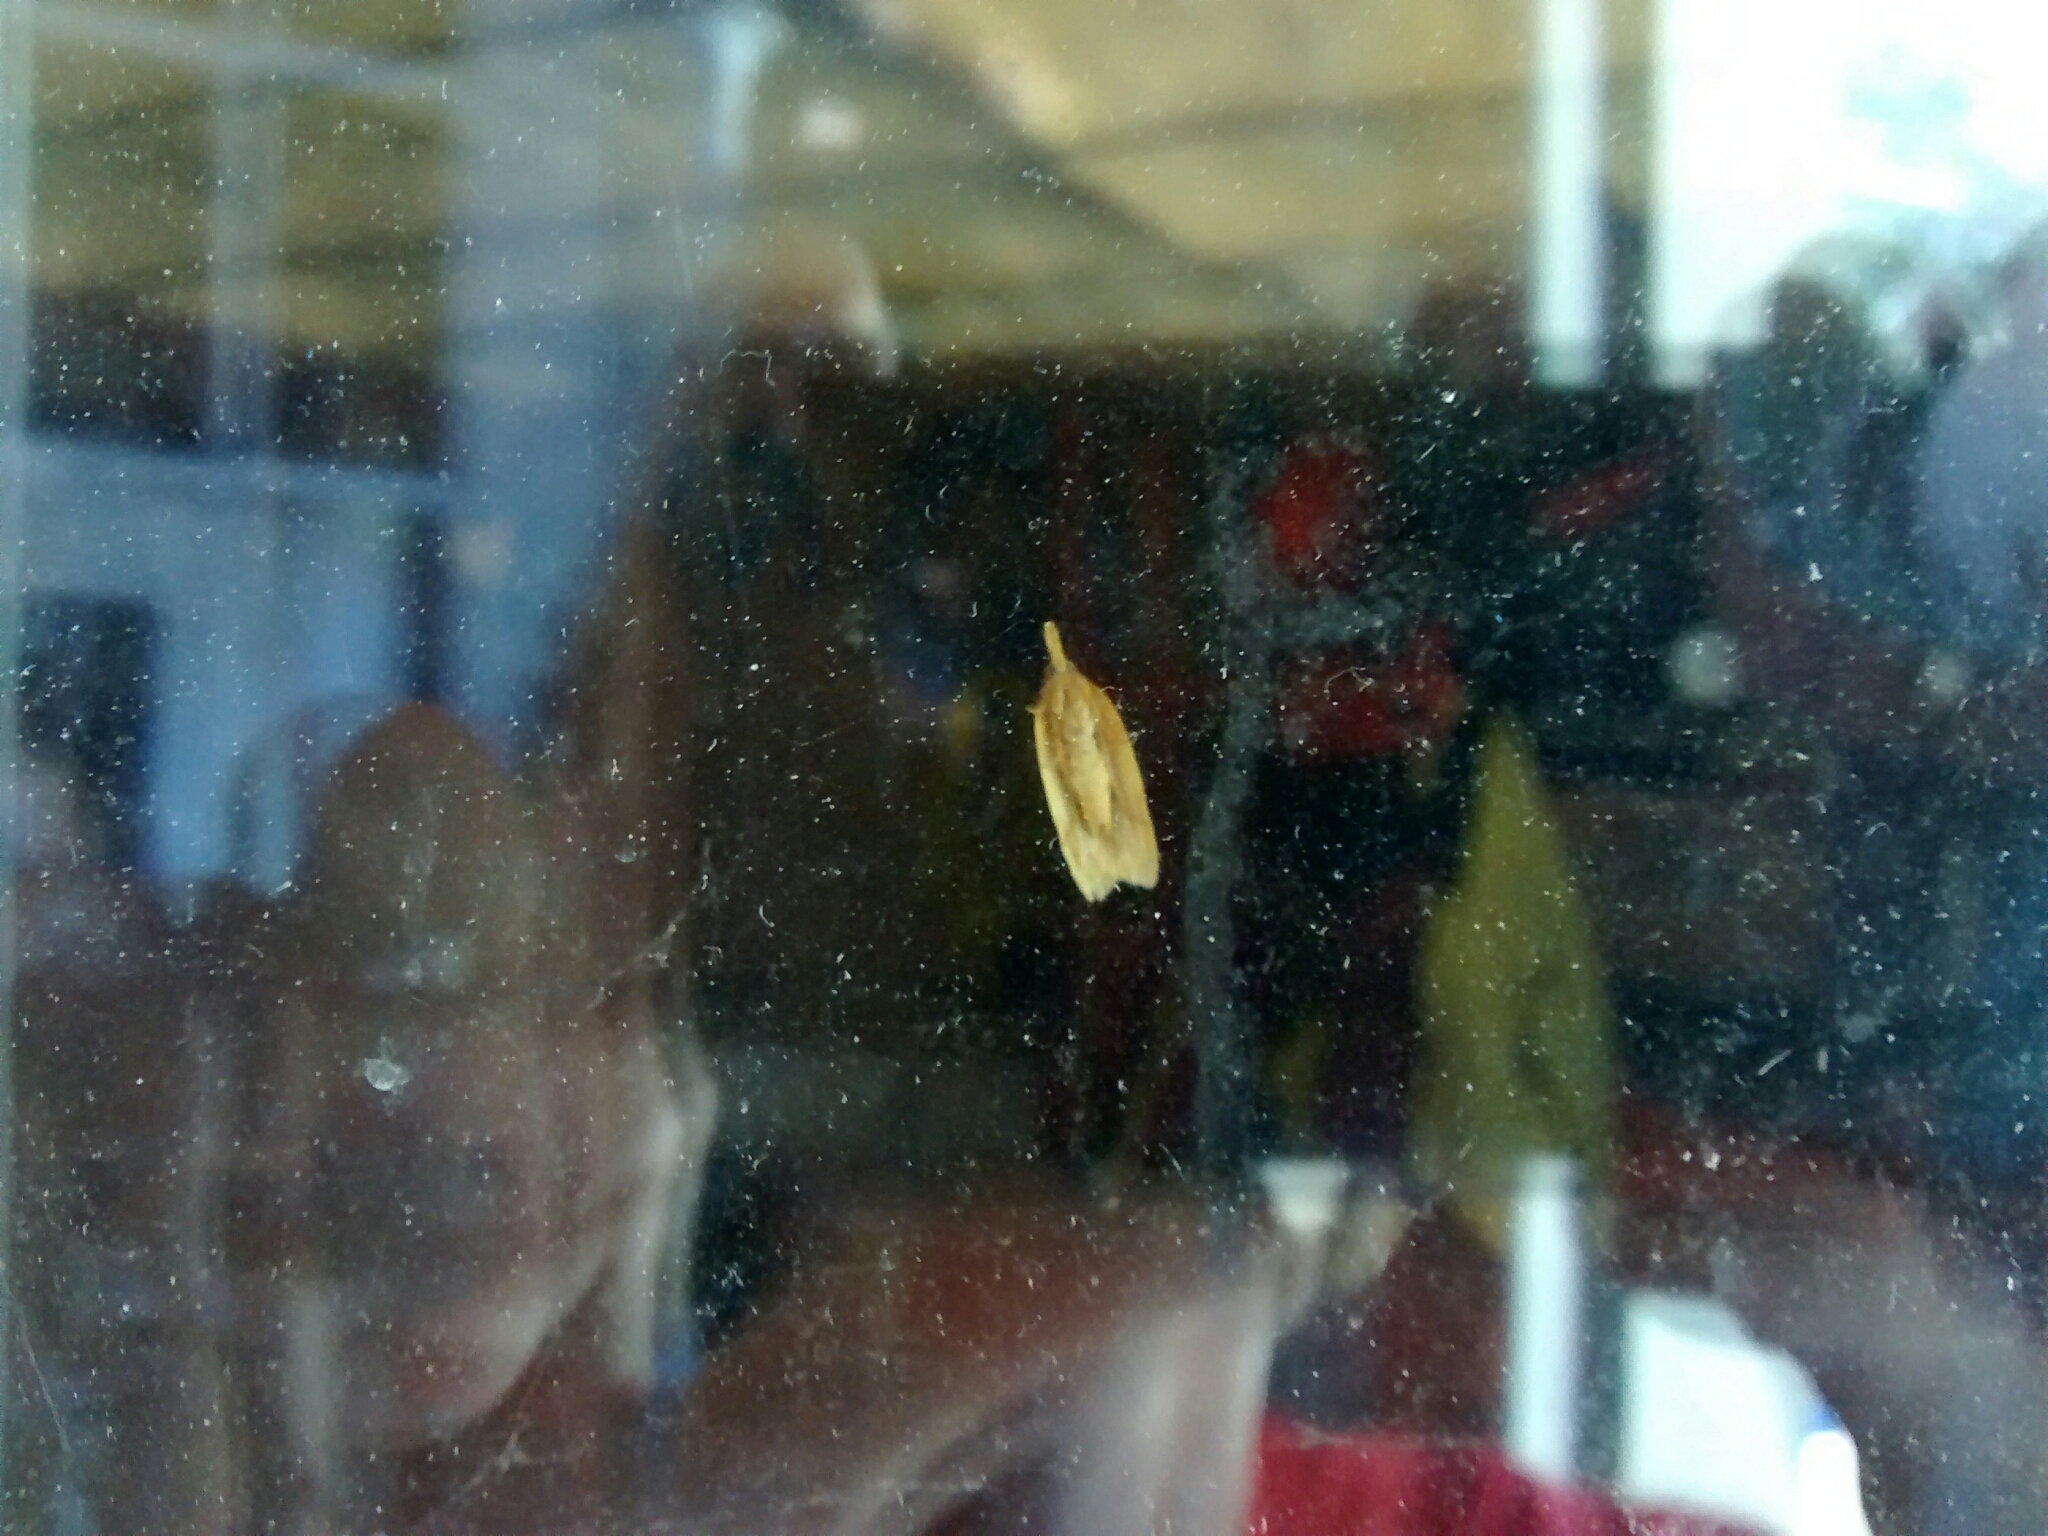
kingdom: Animalia
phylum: Arthropoda
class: Insecta
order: Lepidoptera
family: Tortricidae
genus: Sparganothis
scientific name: Sparganothis unifasciana
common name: One-lined sparganothis moth
